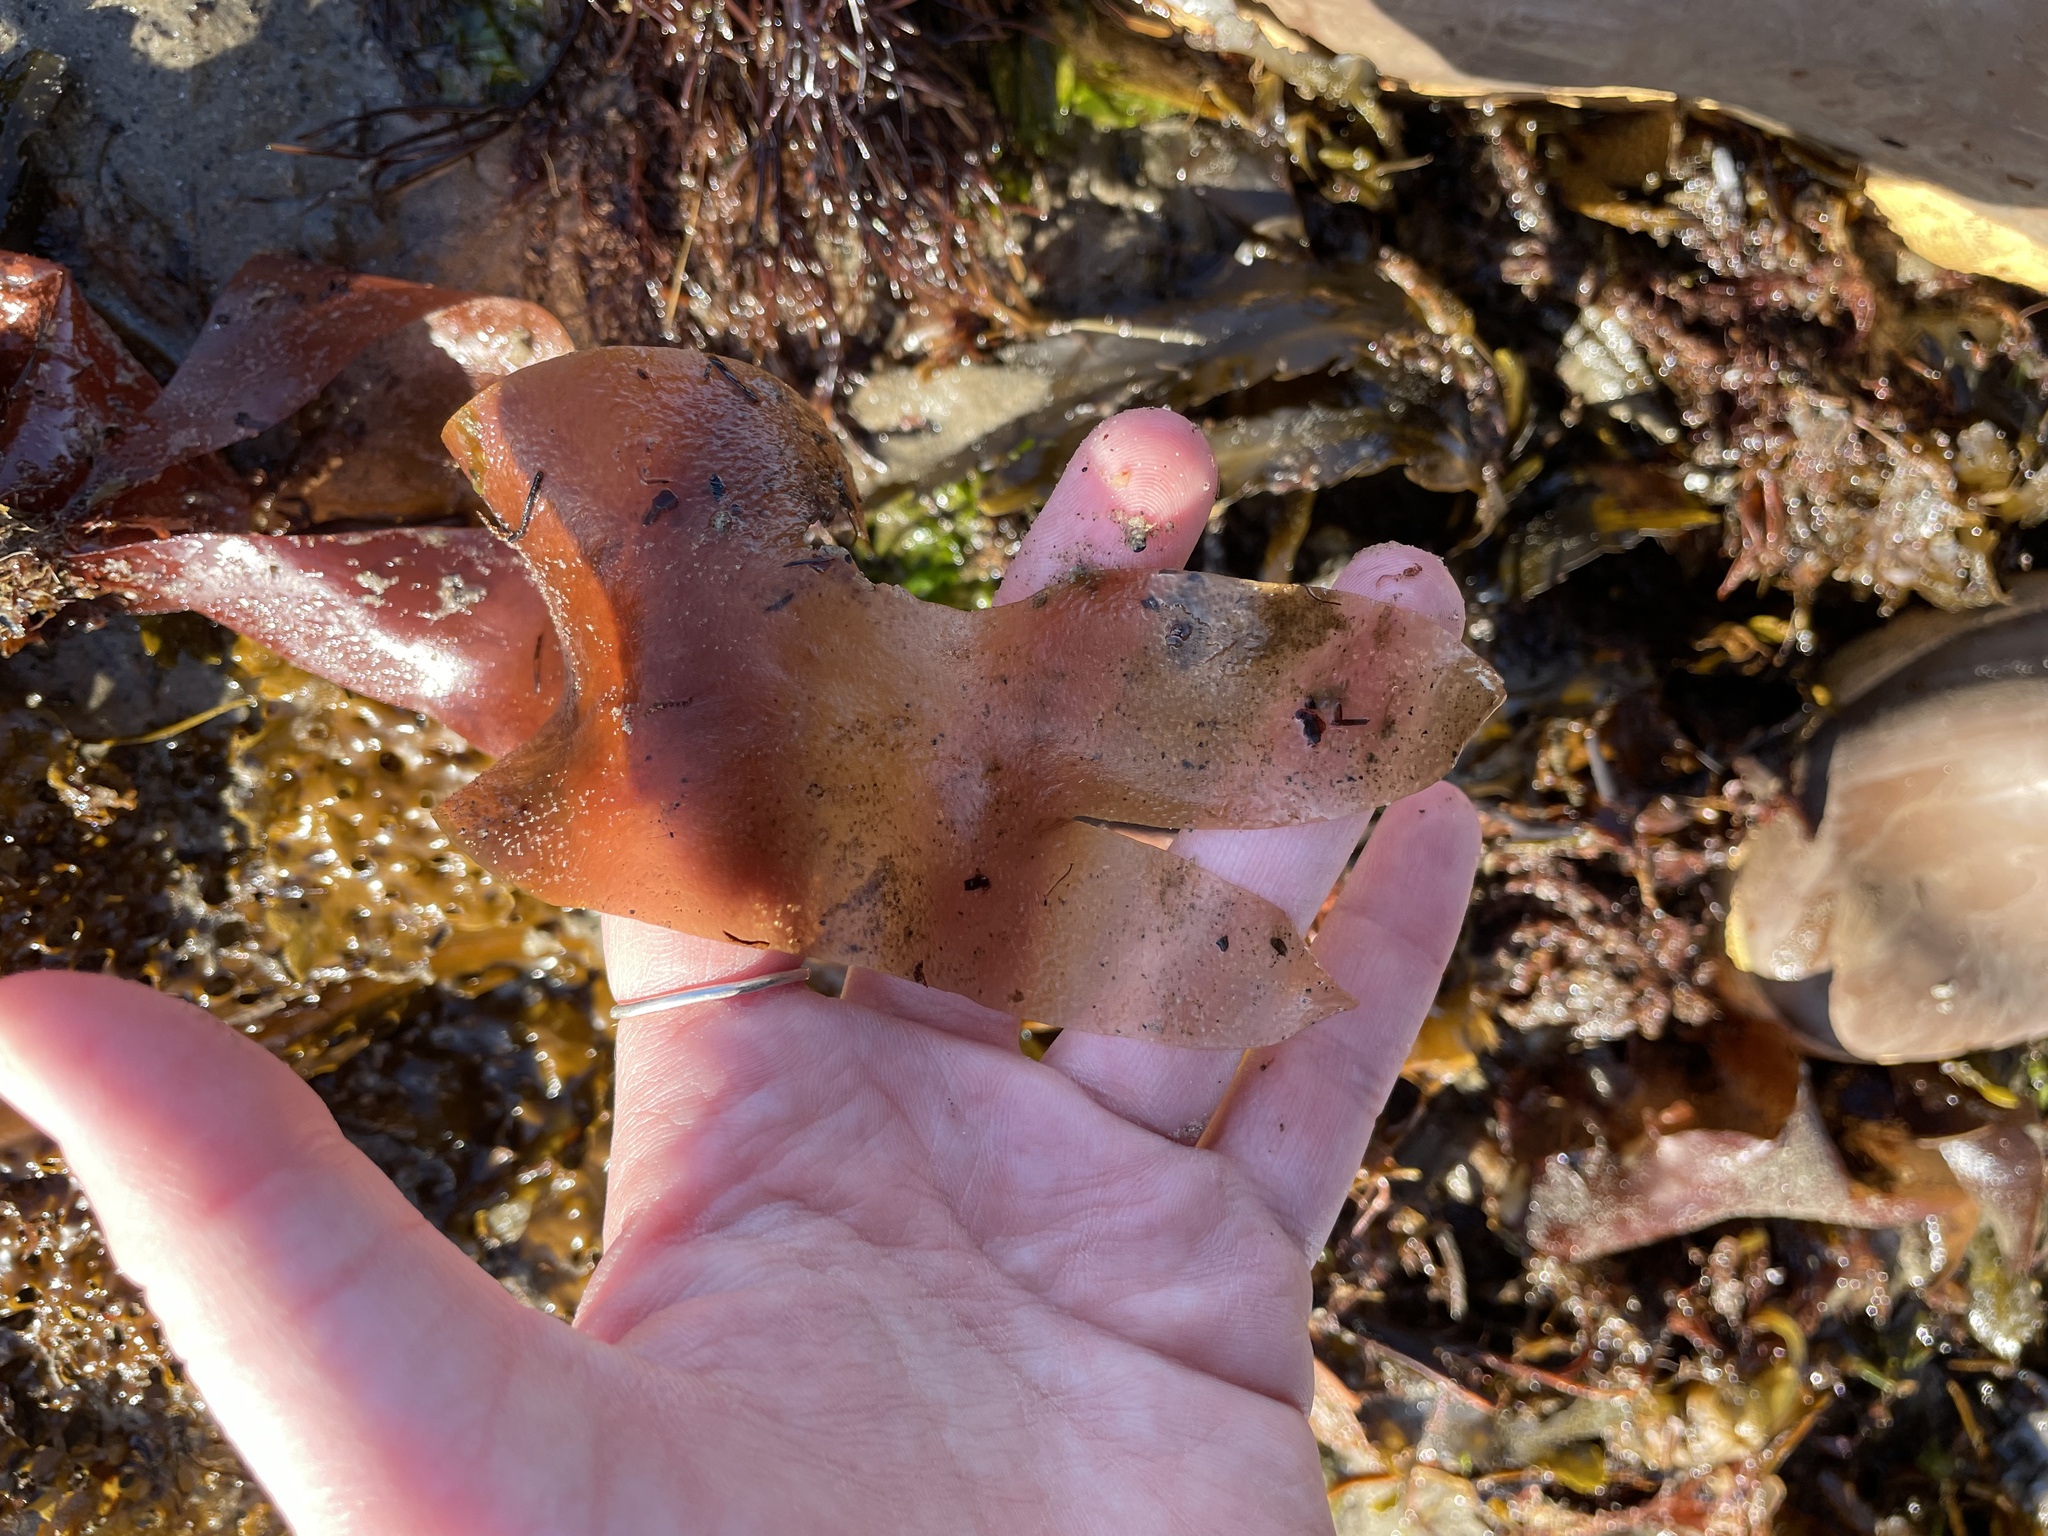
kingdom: Plantae
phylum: Rhodophyta
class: Florideophyceae
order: Palmariales
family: Palmariaceae
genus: Palmaria
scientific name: Palmaria palmata
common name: Dulse
